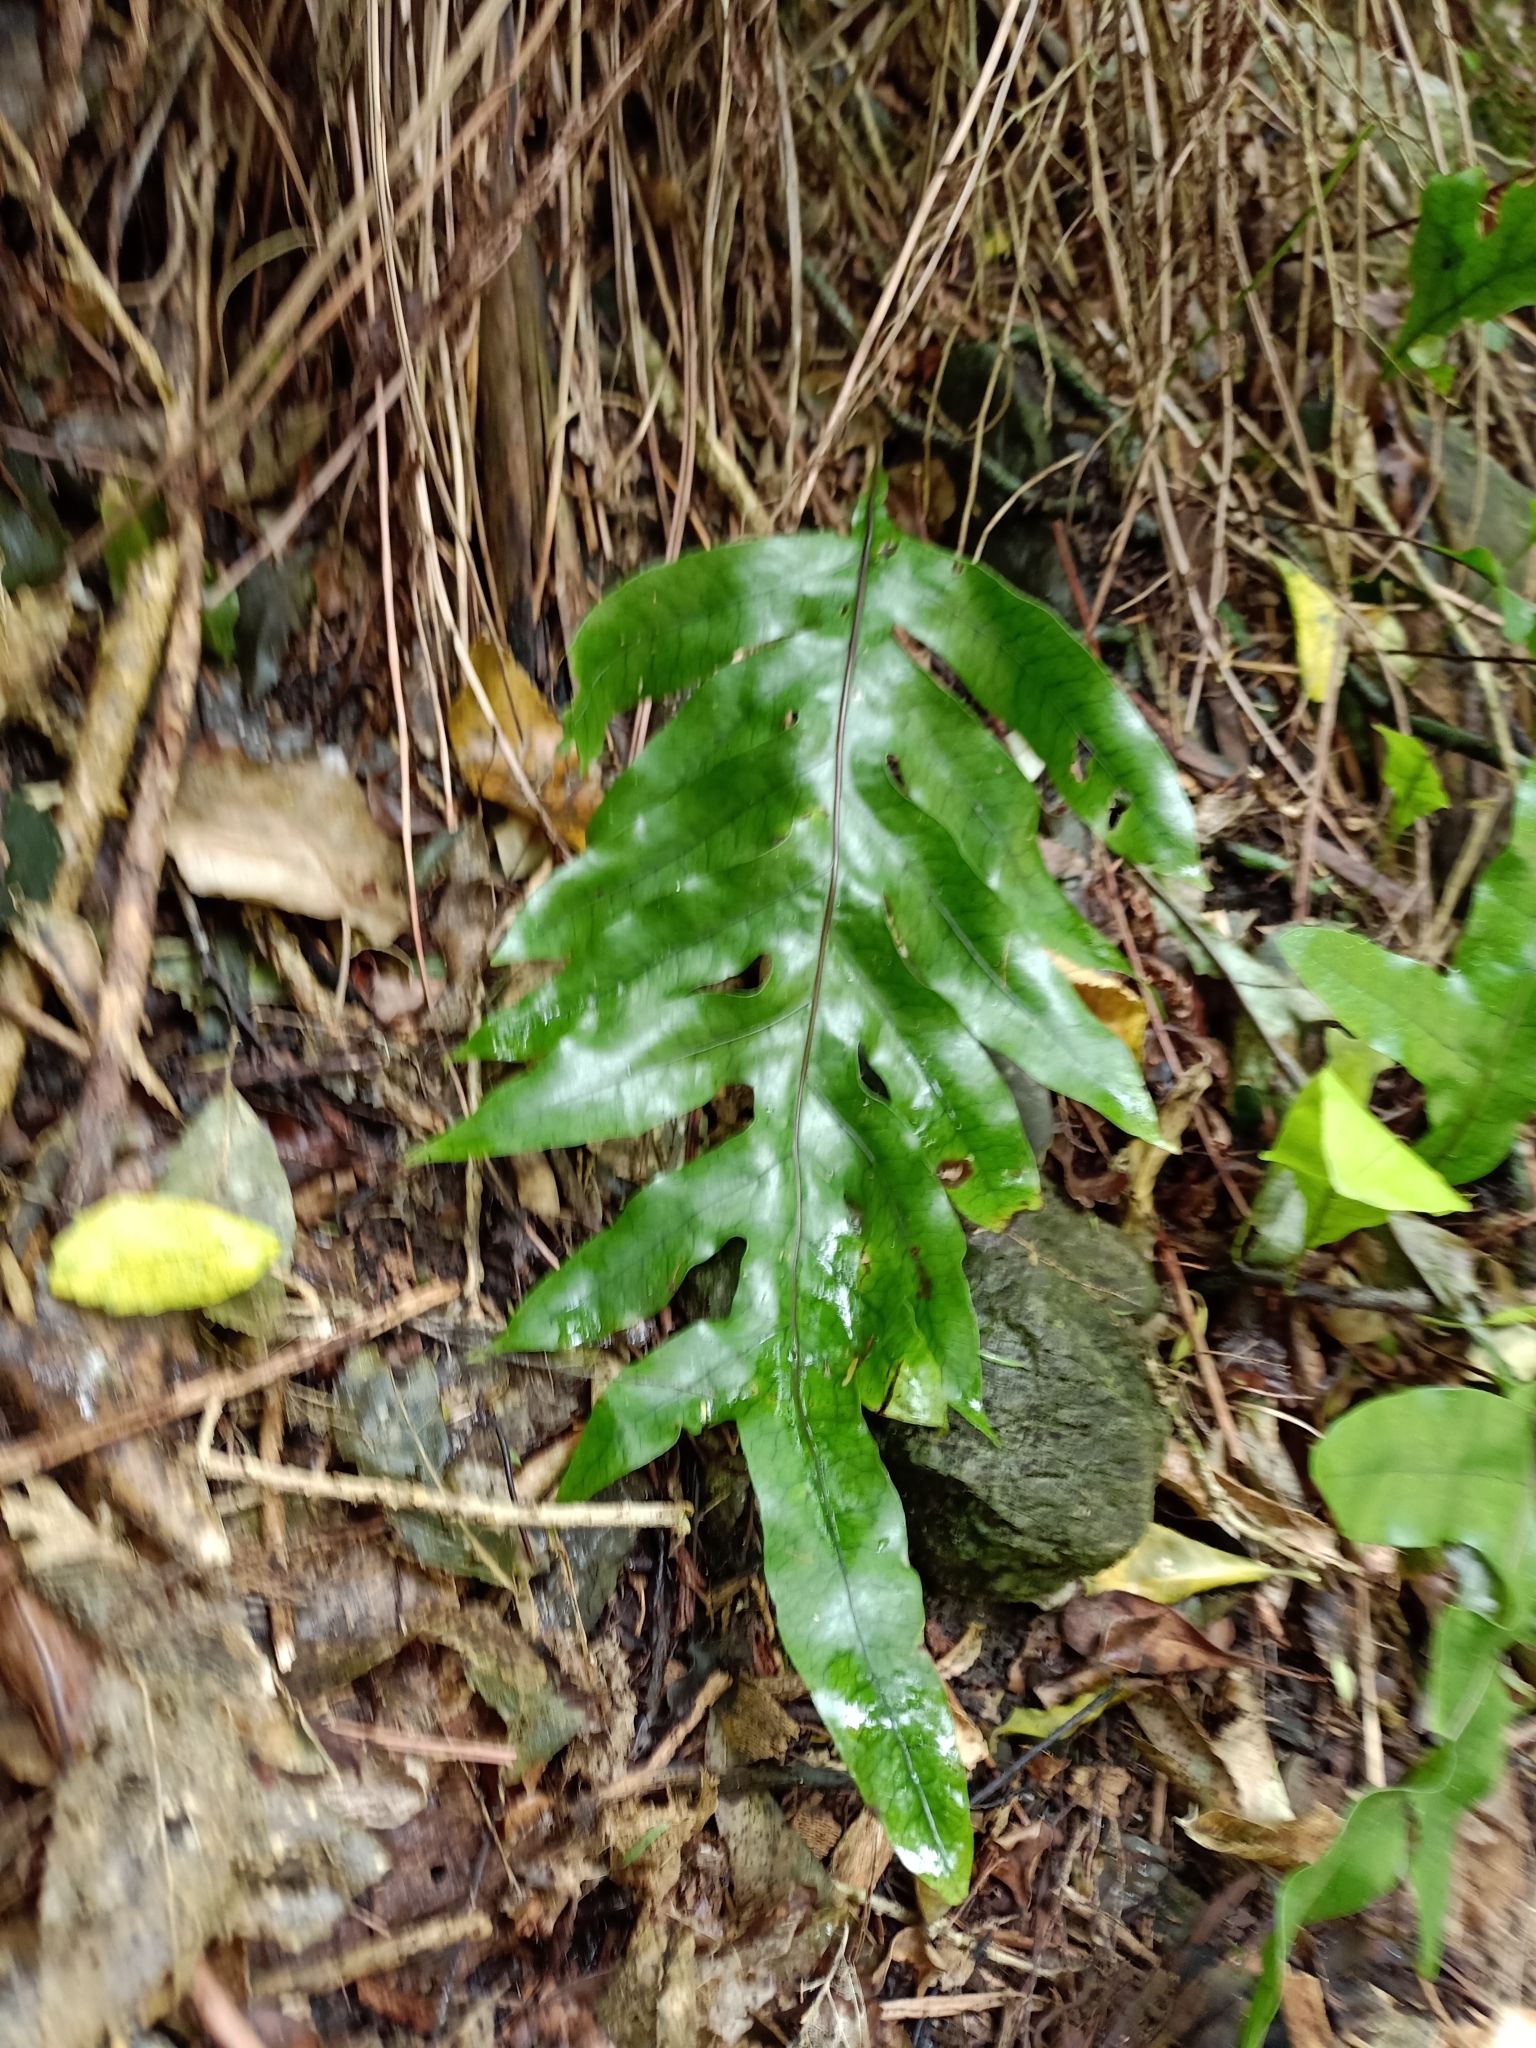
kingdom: Plantae
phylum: Tracheophyta
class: Polypodiopsida
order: Polypodiales
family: Polypodiaceae
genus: Lecanopteris
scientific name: Lecanopteris pustulata
